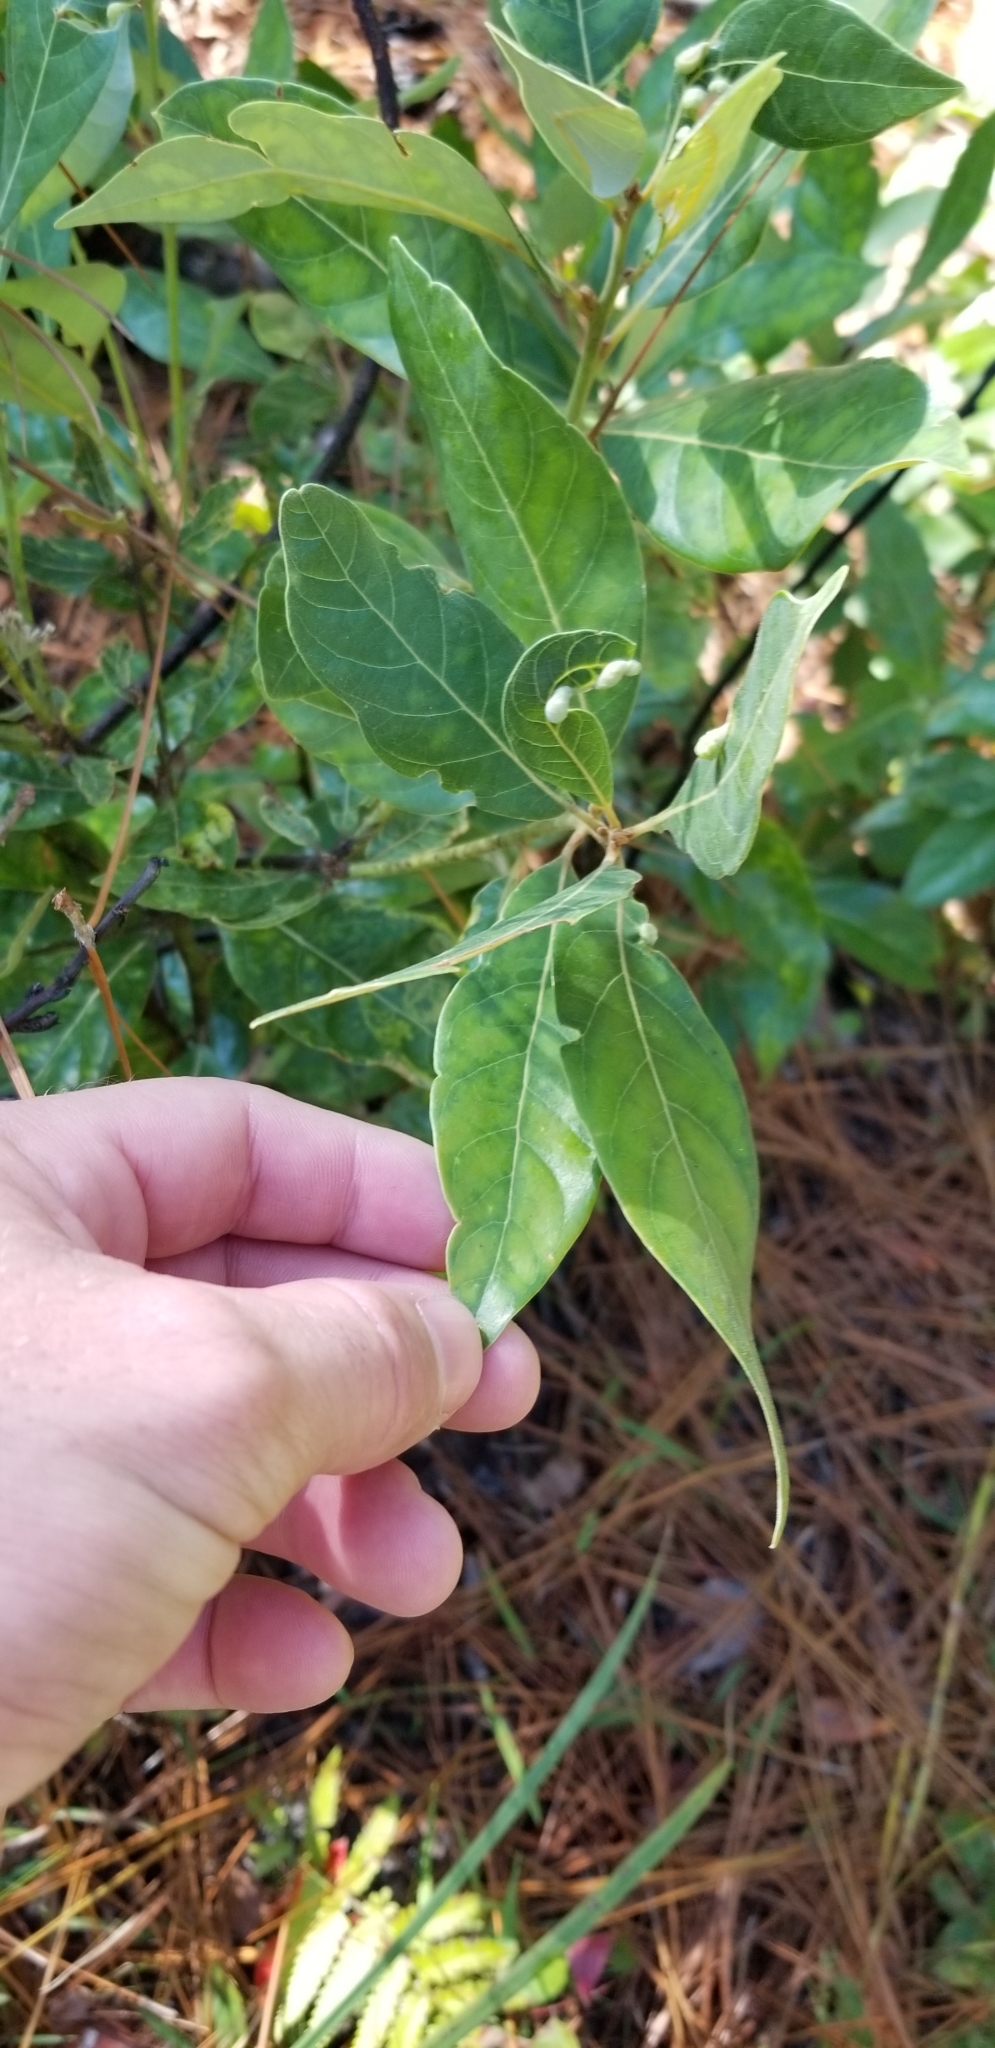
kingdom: Plantae
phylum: Tracheophyta
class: Magnoliopsida
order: Laurales
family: Lauraceae
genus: Persea
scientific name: Persea palustris
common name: Swampbay
